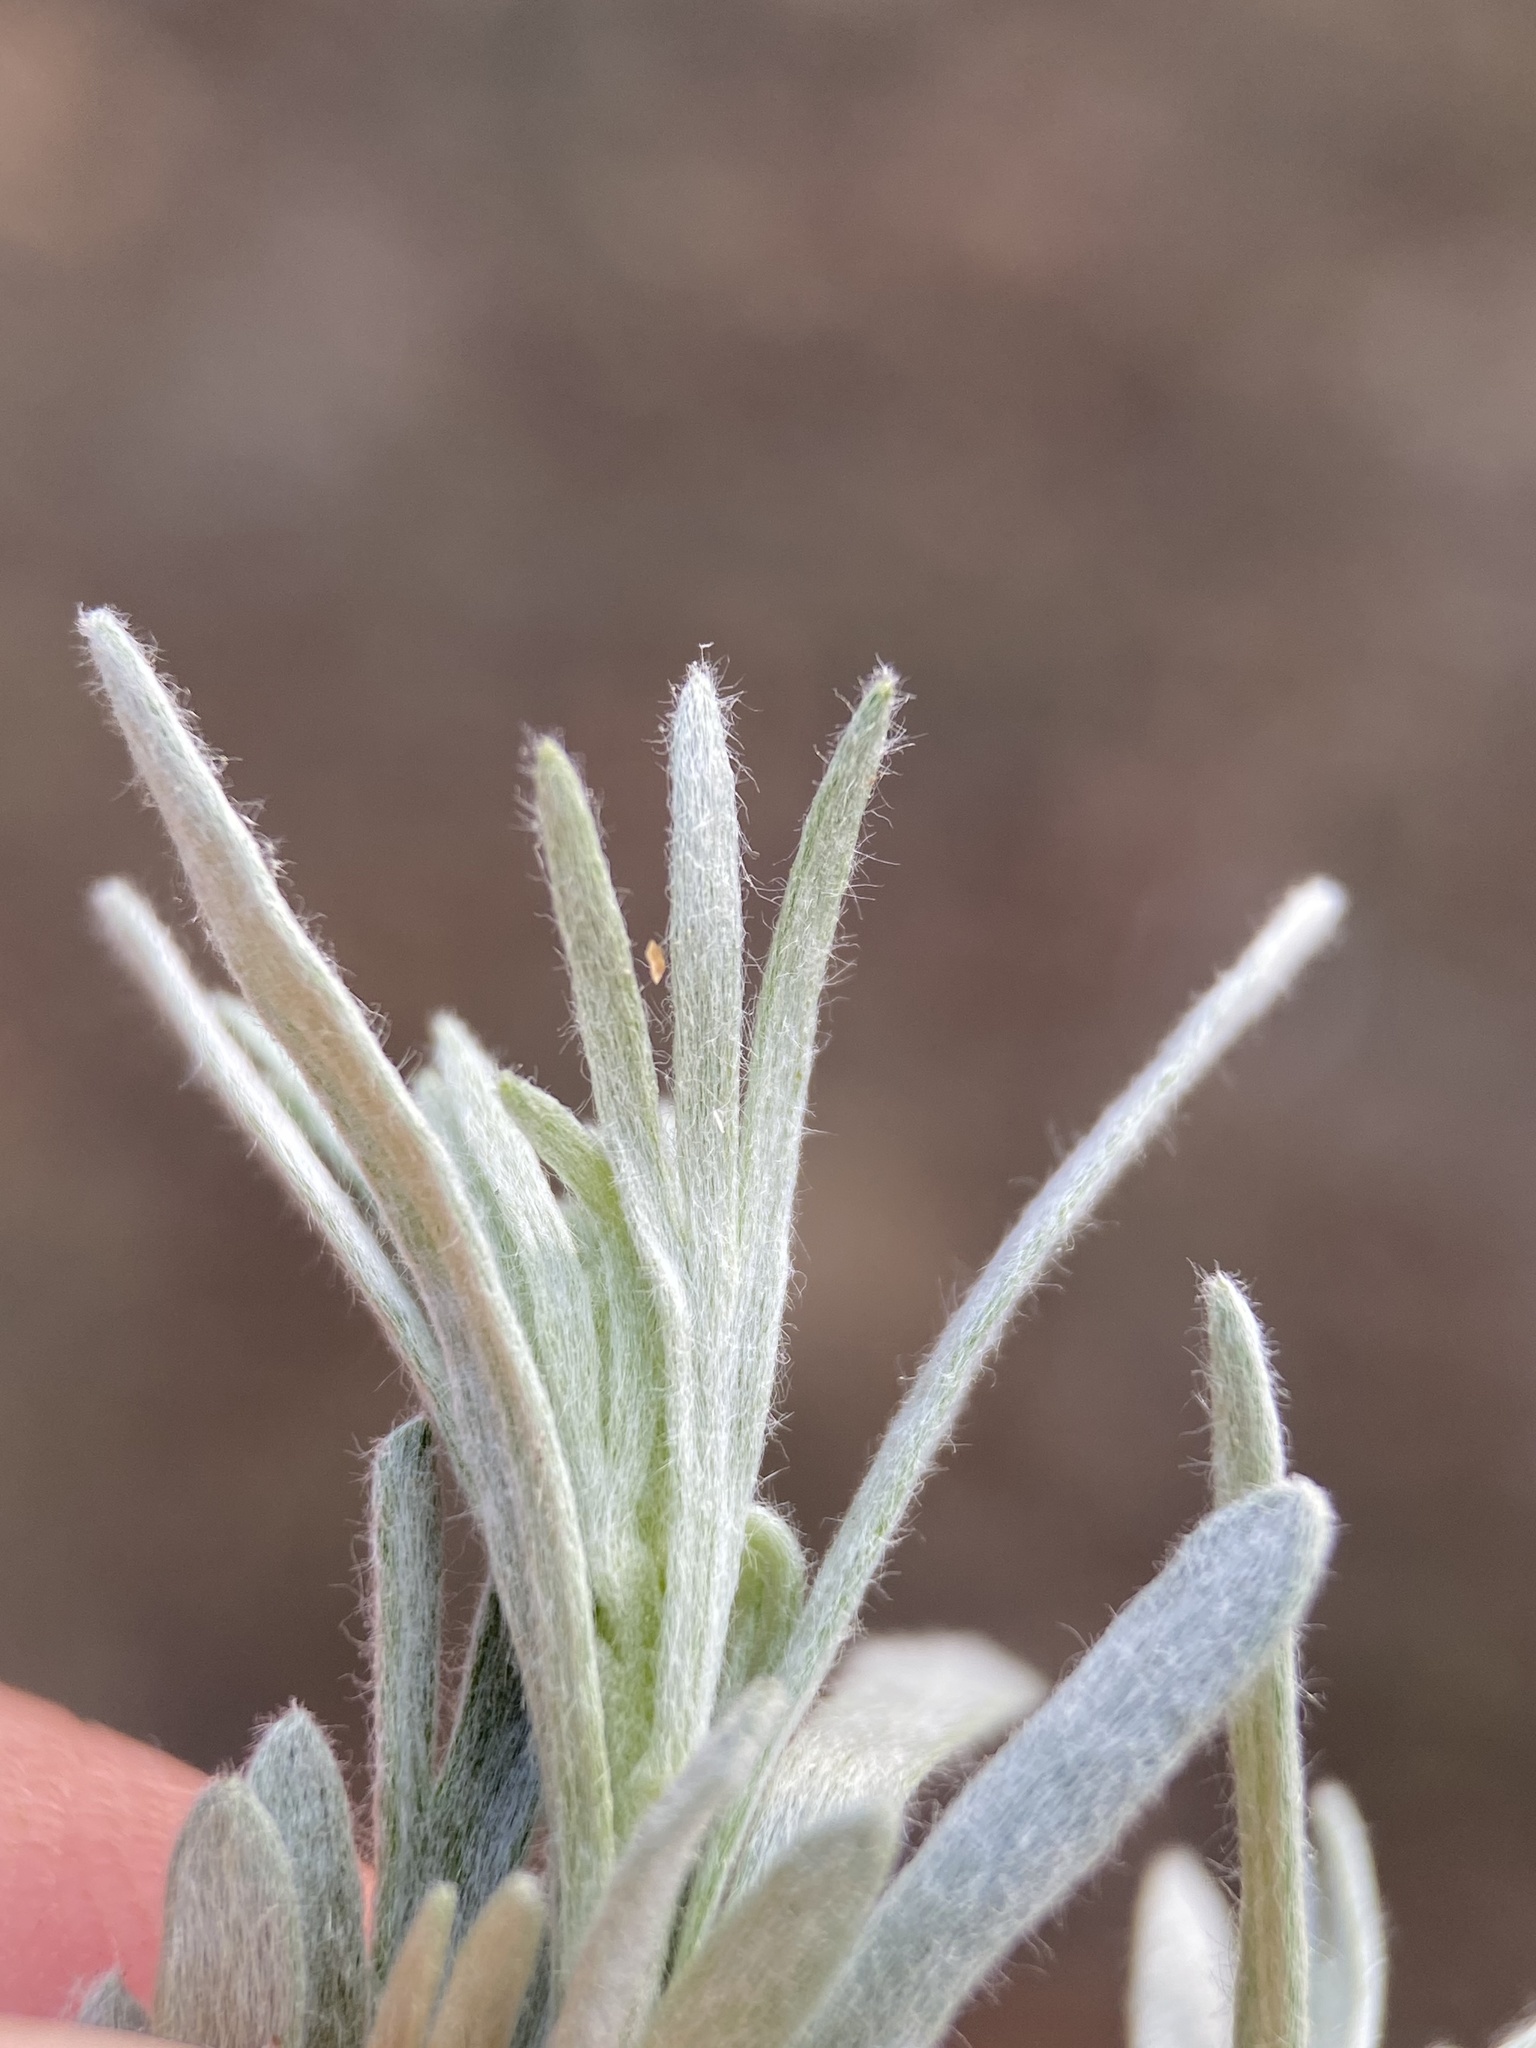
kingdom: Plantae
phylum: Tracheophyta
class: Magnoliopsida
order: Asterales
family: Asteraceae
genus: Artemisia
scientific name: Artemisia rigida
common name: Scabland sagebrush
